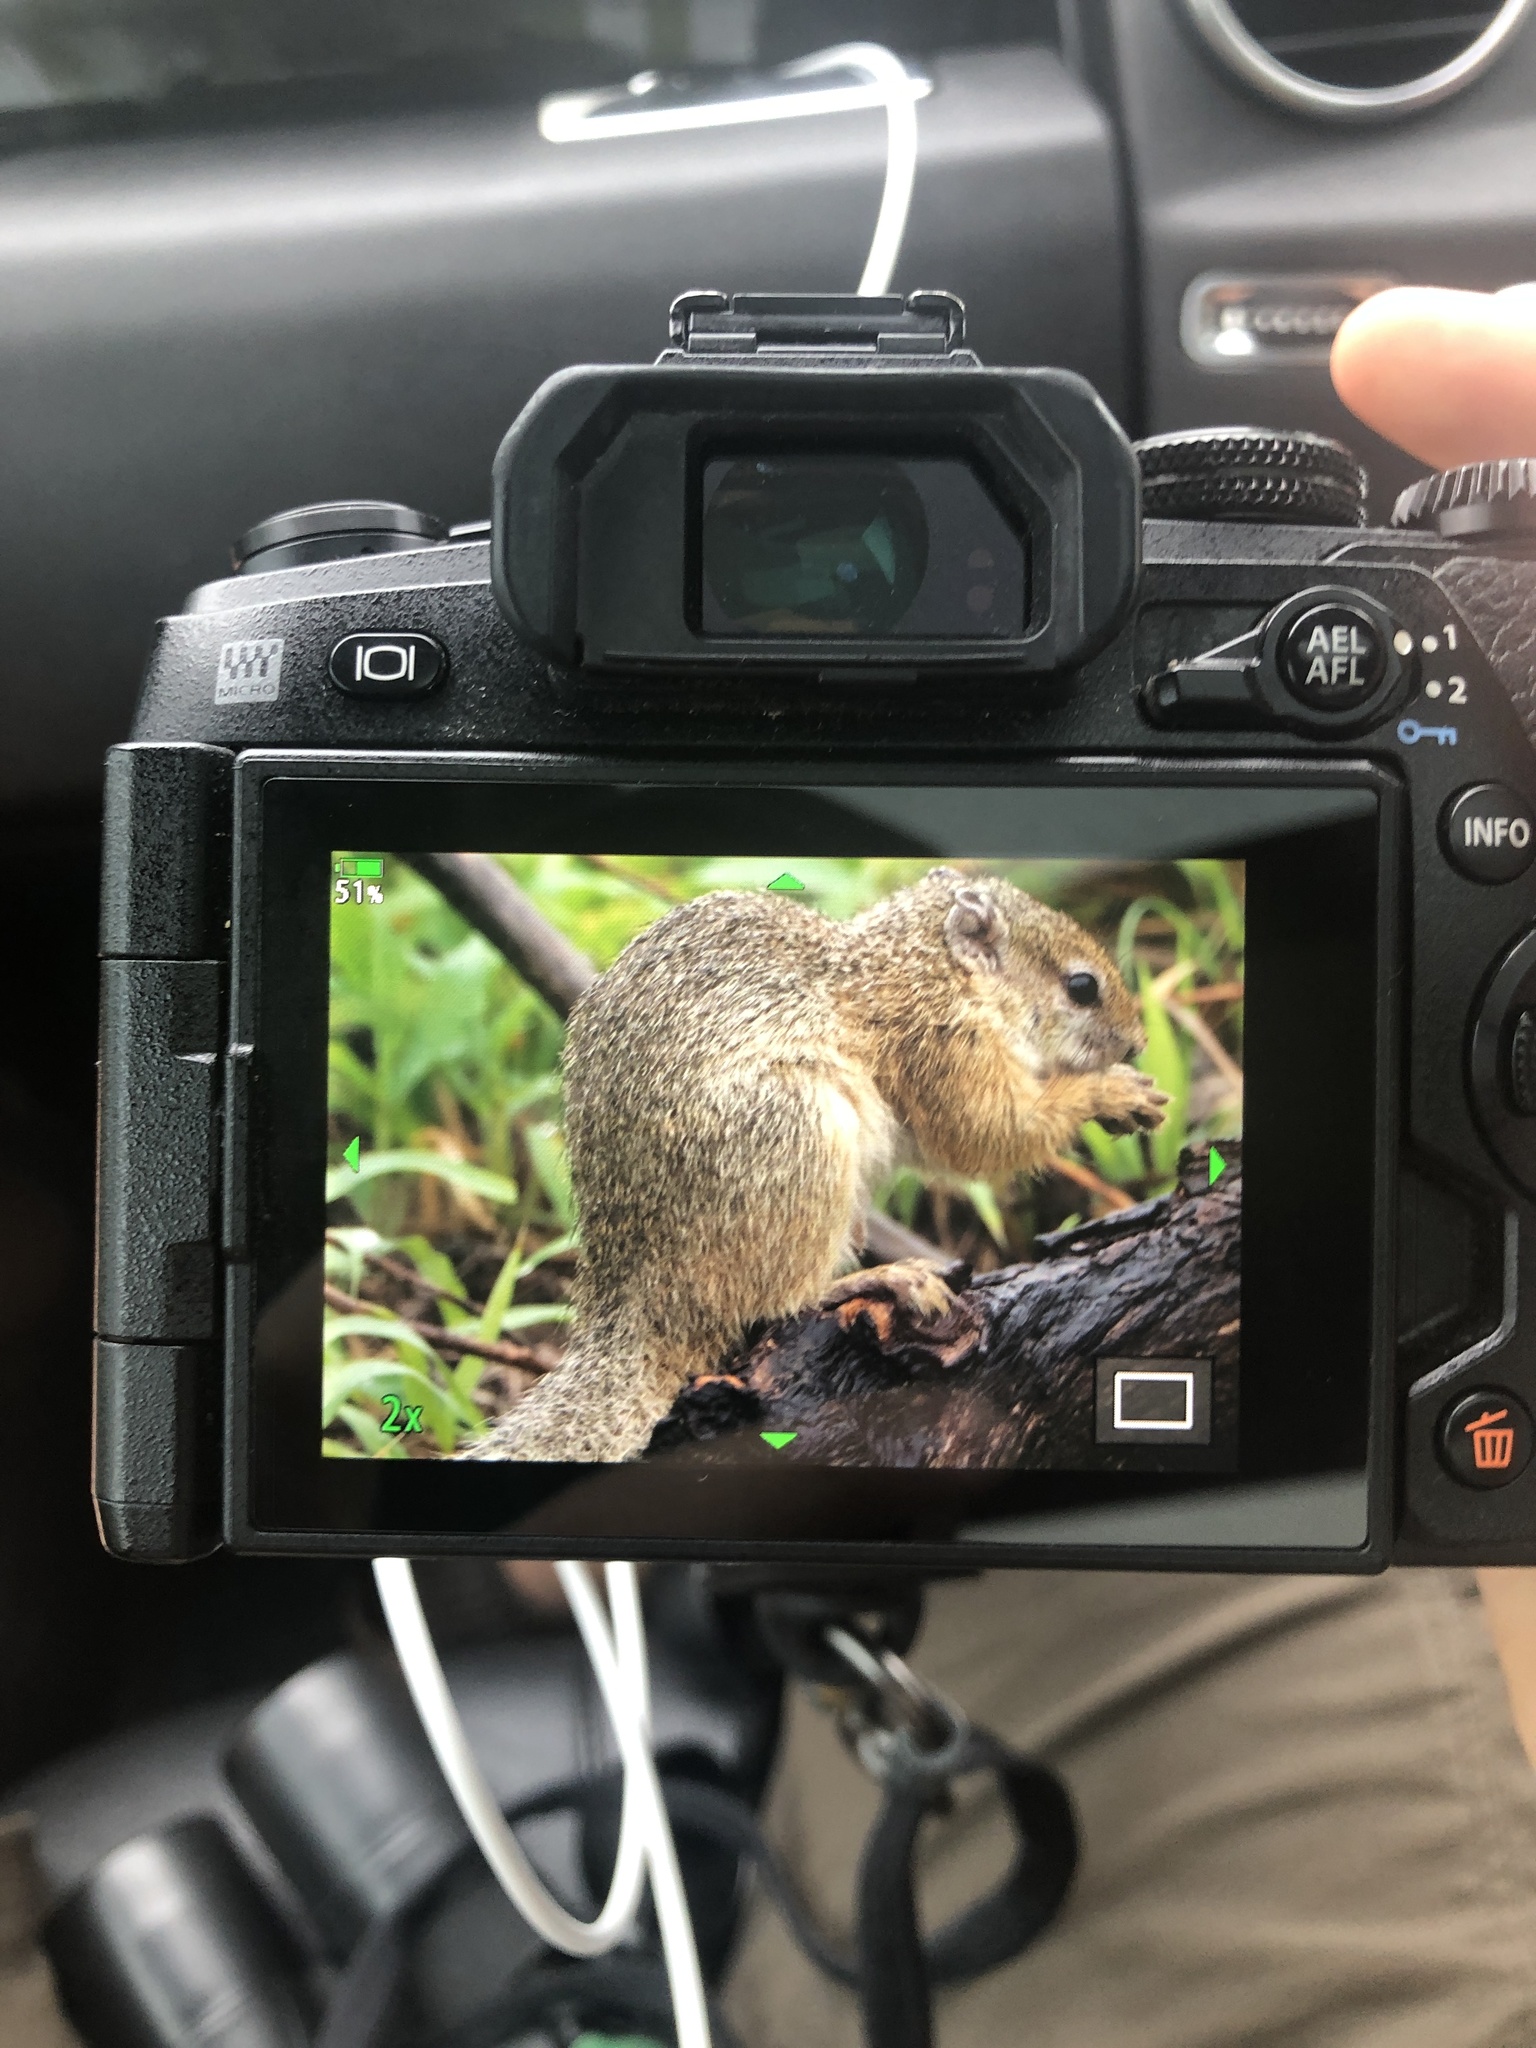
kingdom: Animalia
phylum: Chordata
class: Mammalia
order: Rodentia
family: Sciuridae
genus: Paraxerus
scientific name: Paraxerus cepapi
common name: Smith's bush squirrel
